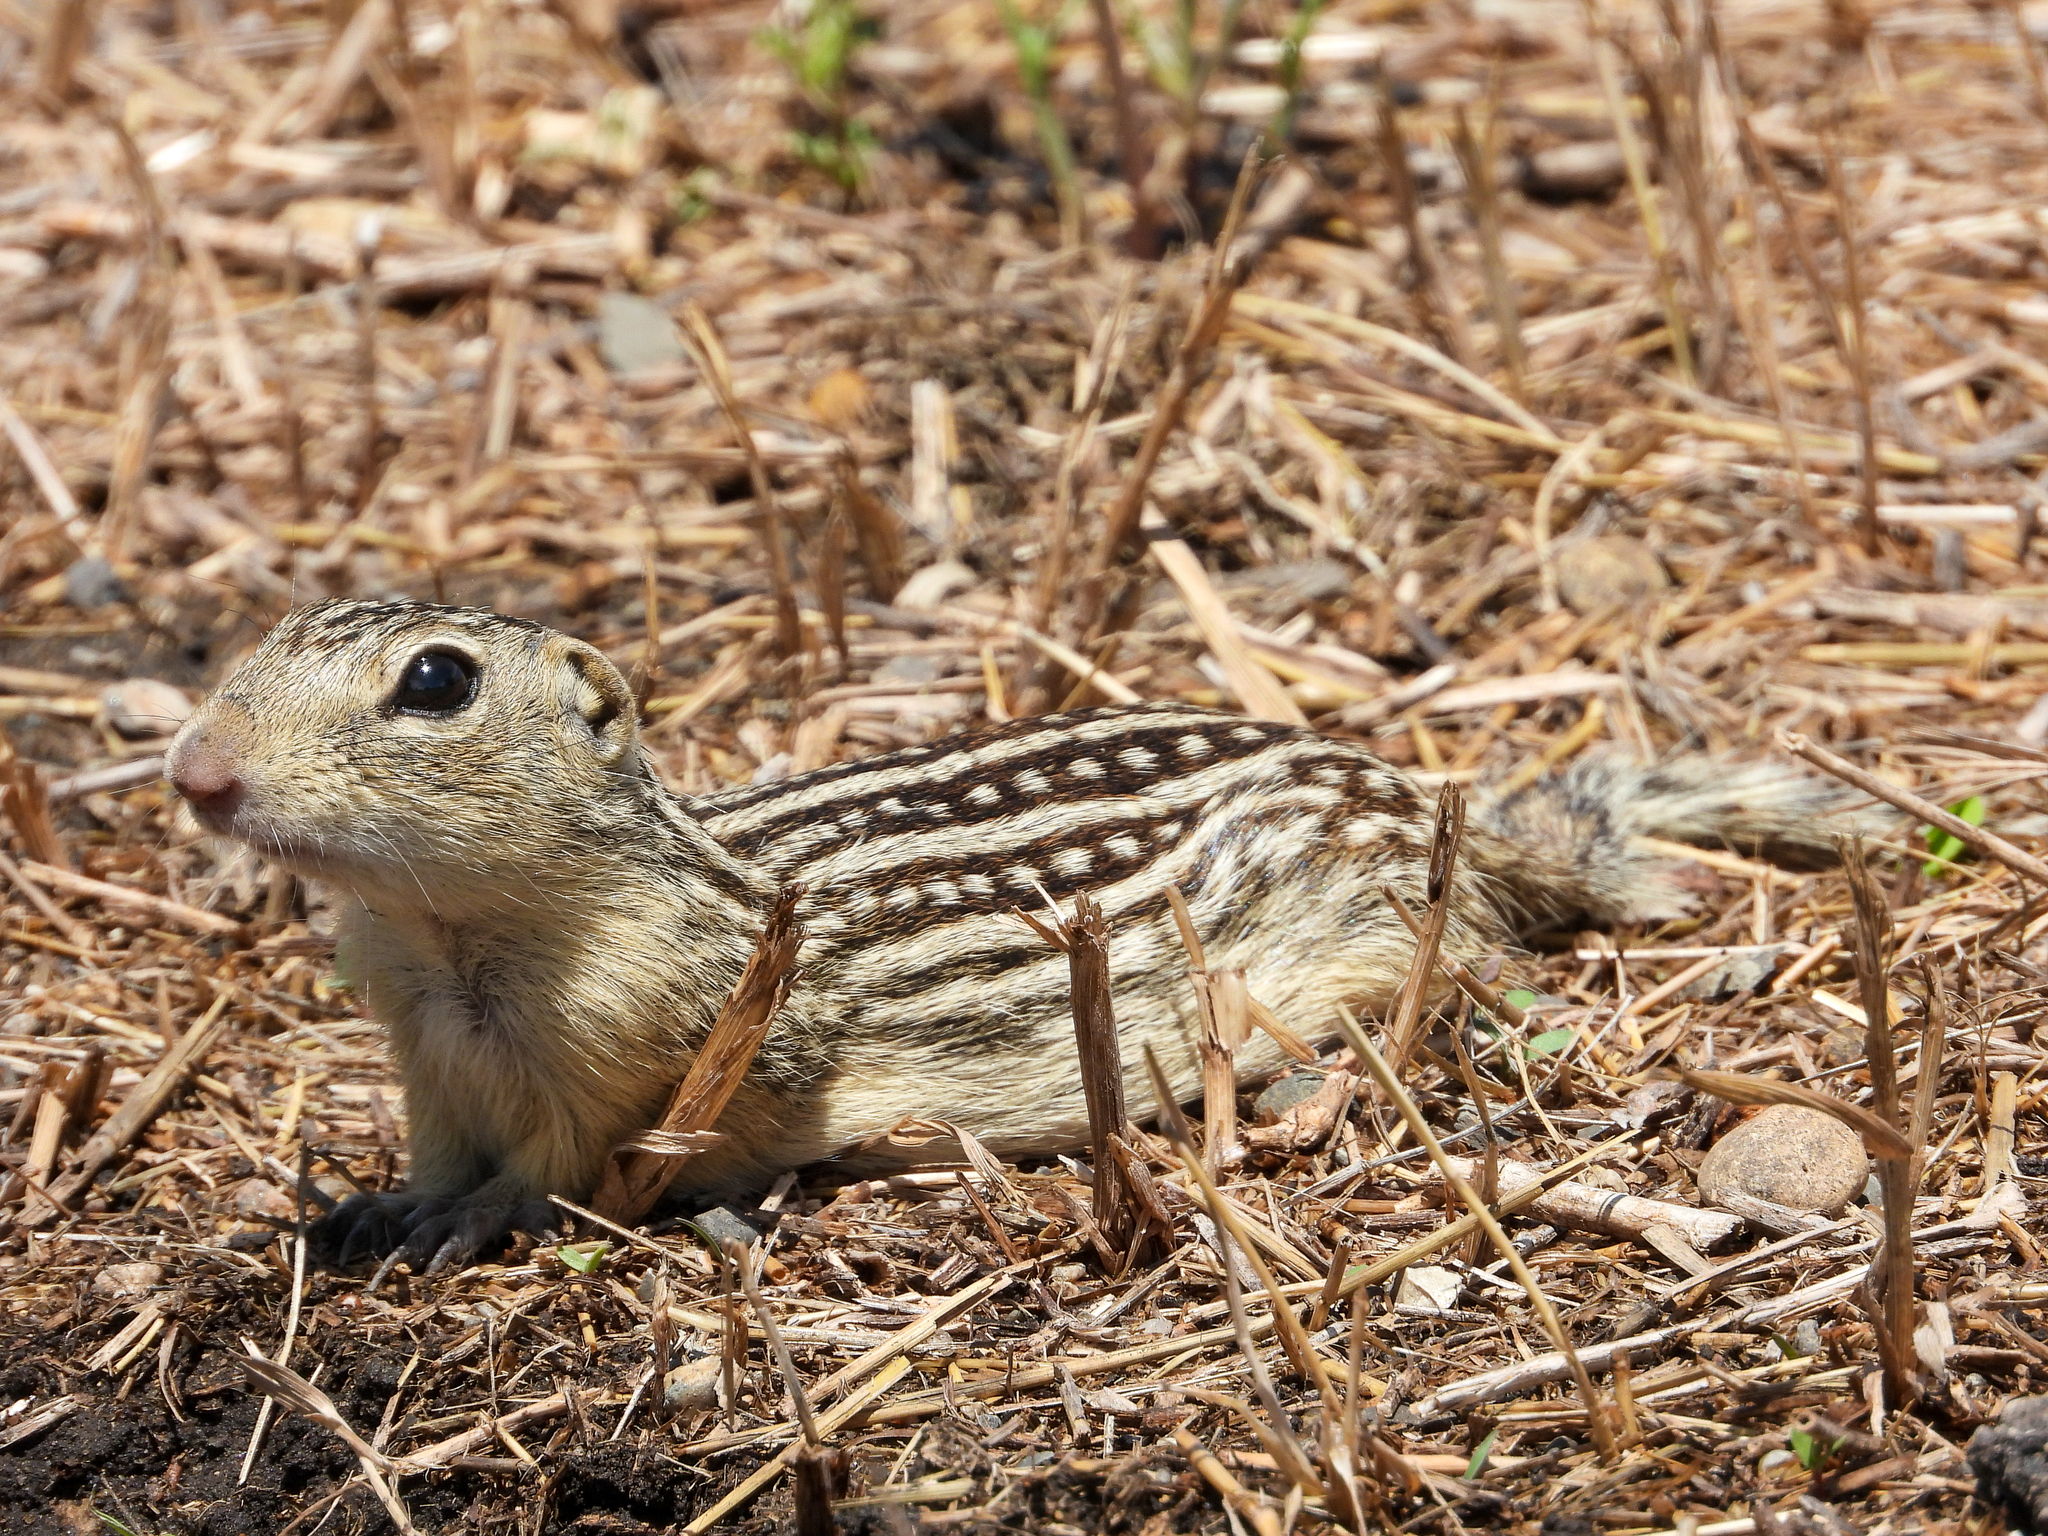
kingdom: Animalia
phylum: Chordata
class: Mammalia
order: Rodentia
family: Sciuridae
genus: Ictidomys
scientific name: Ictidomys tridecemlineatus
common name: Thirteen-lined ground squirrel
